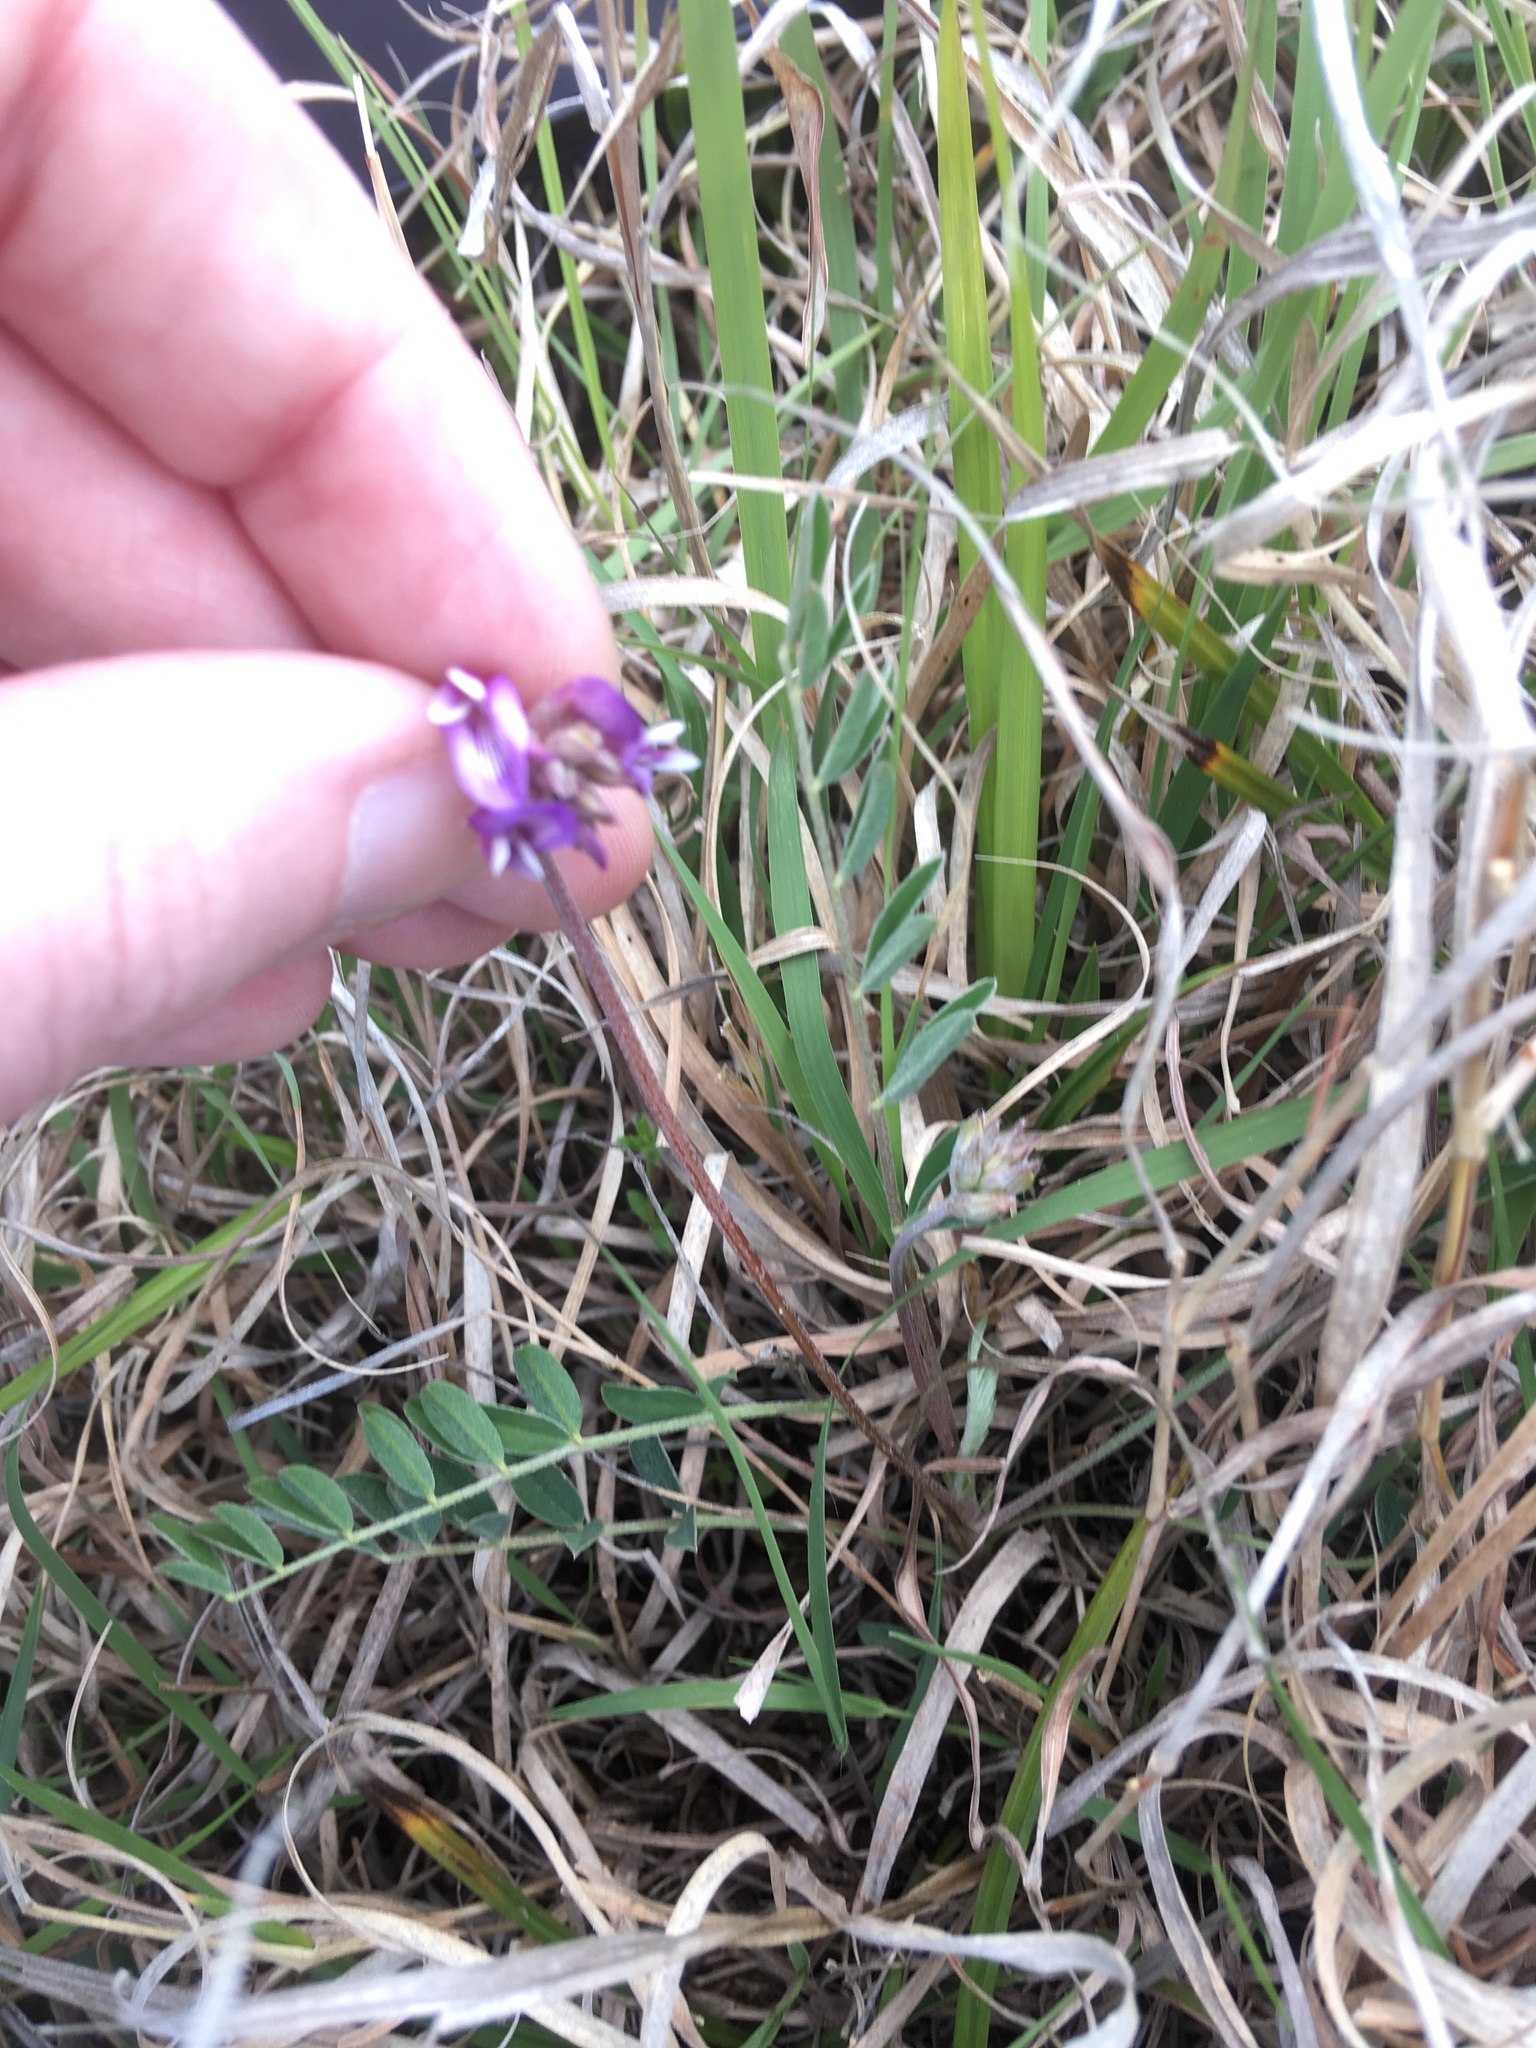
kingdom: Plantae
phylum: Tracheophyta
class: Magnoliopsida
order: Fabales
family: Fabaceae
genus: Astragalus
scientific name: Astragalus lotiflorus
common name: Lotus milk-vetch
